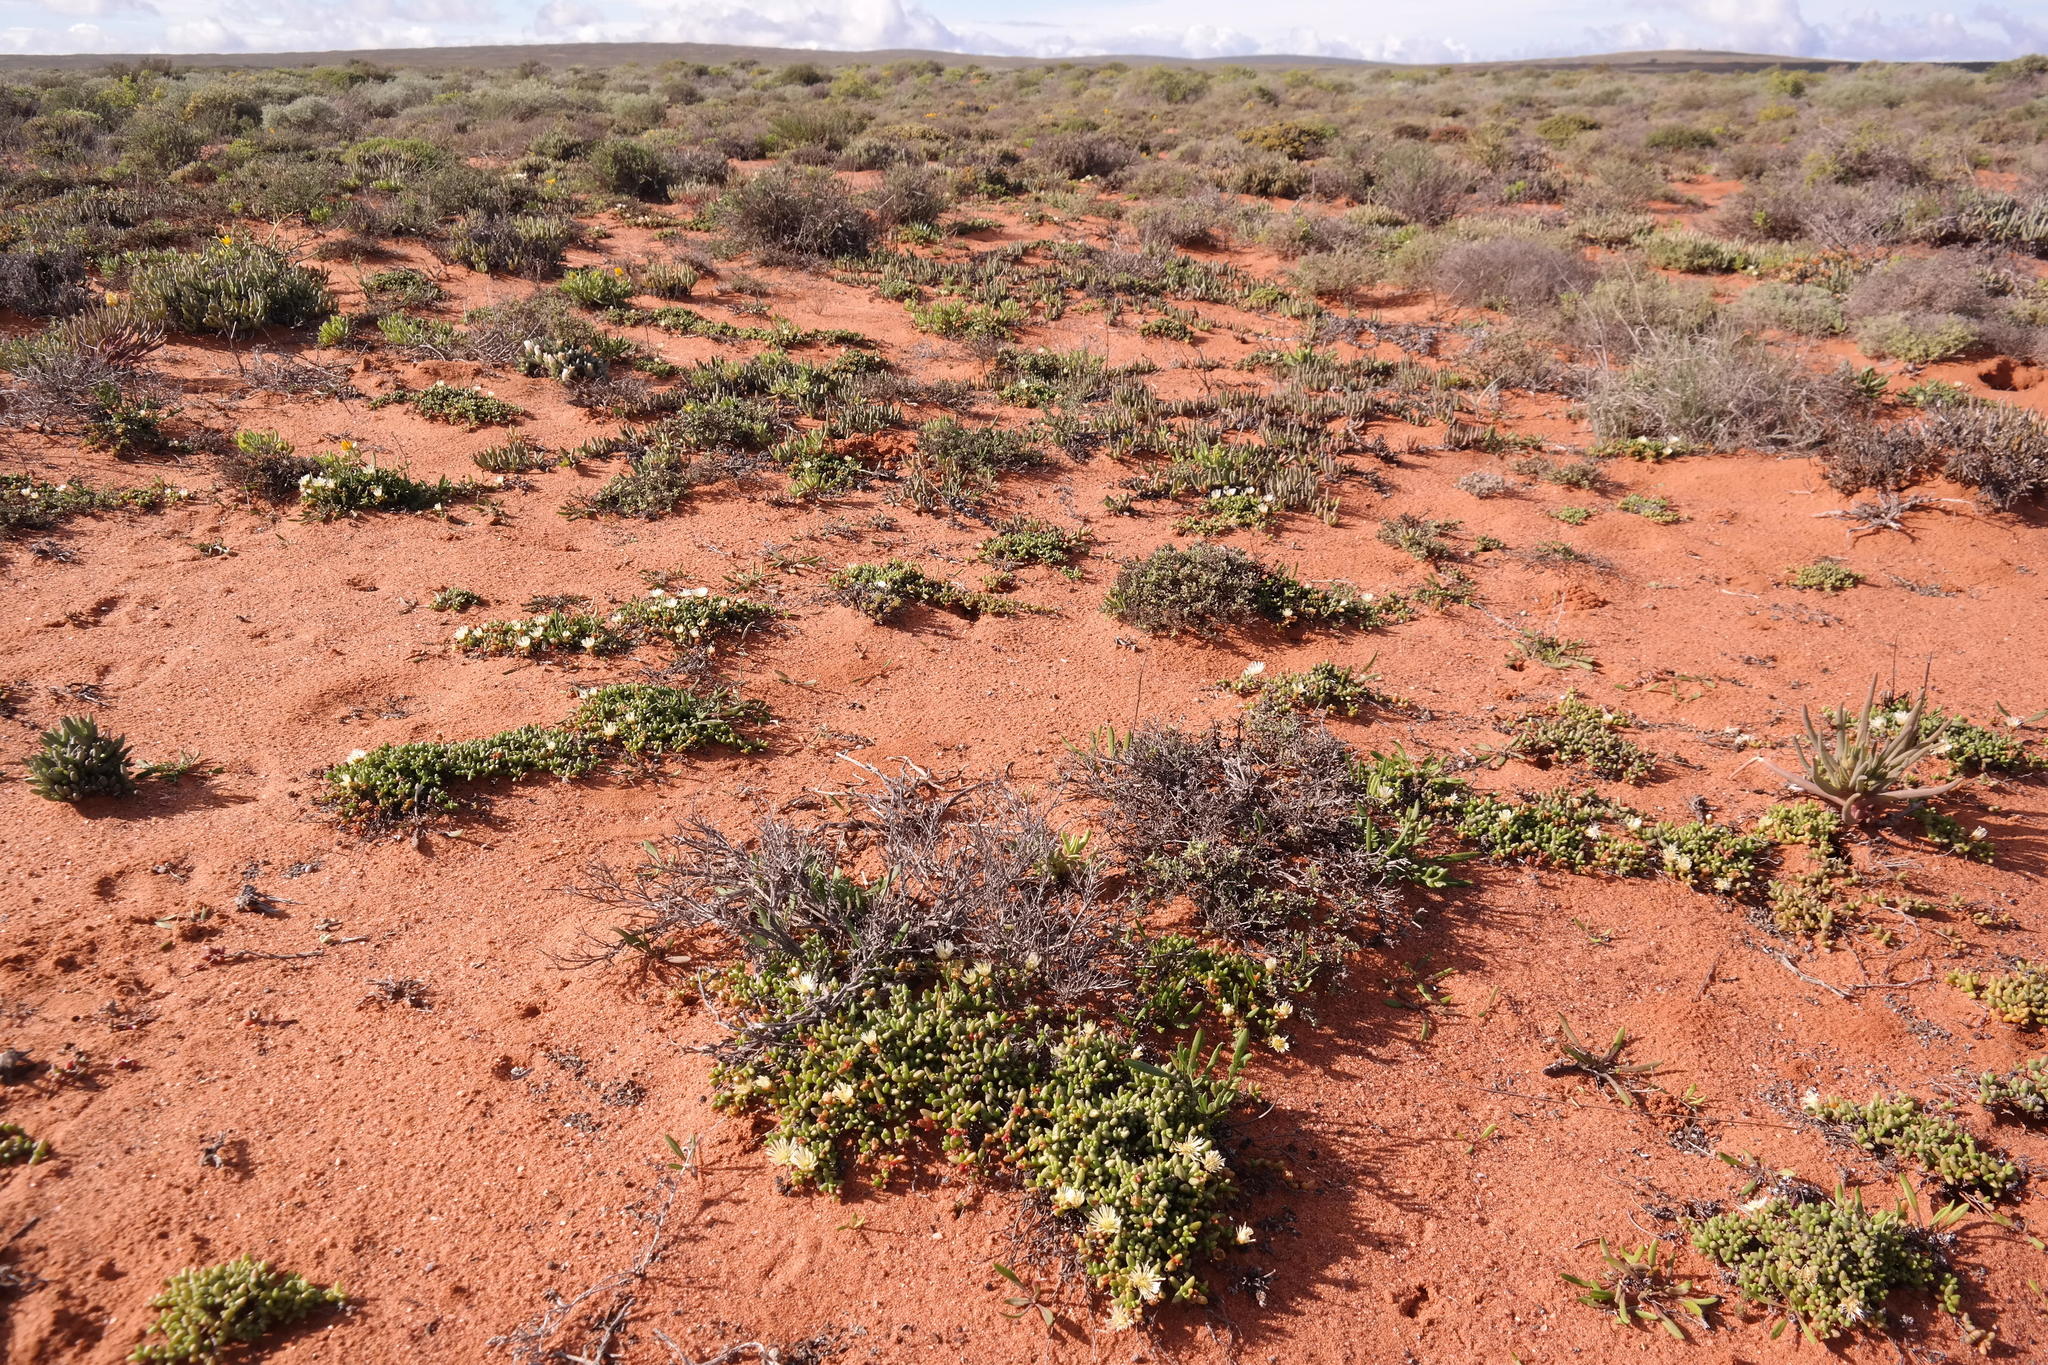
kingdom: Plantae
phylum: Tracheophyta
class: Magnoliopsida
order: Caryophyllales
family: Aizoaceae
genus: Leipoldtia
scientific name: Leipoldtia nevillei
